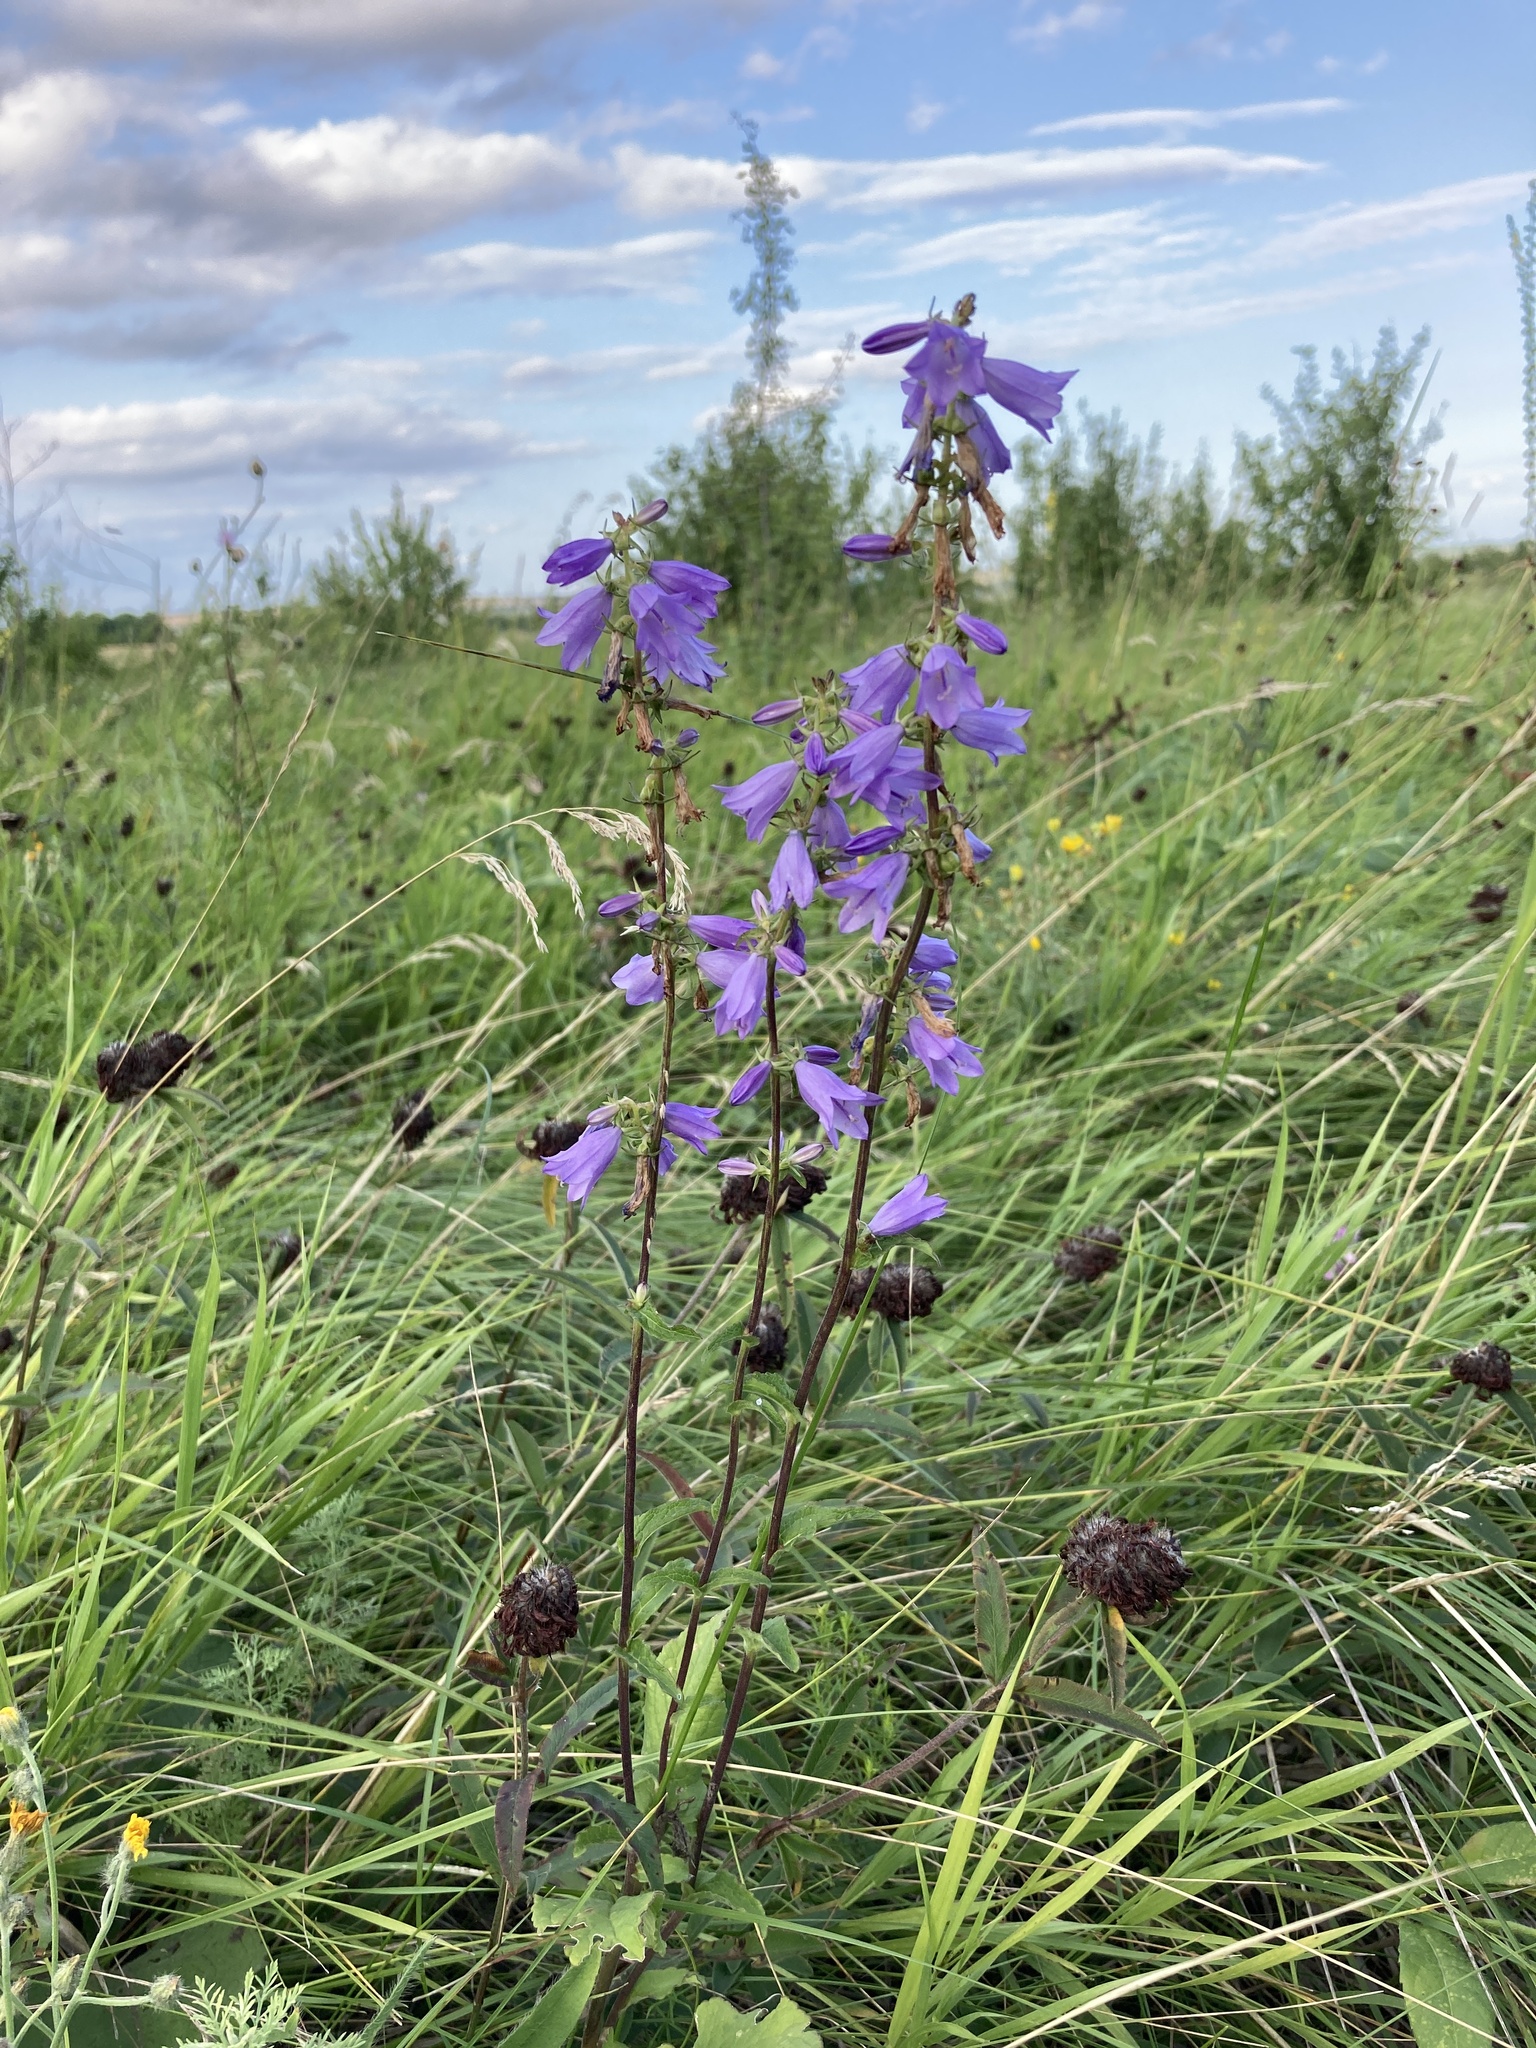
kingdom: Plantae
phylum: Tracheophyta
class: Magnoliopsida
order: Asterales
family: Campanulaceae
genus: Campanula
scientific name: Campanula bononiensis
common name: Pale bellflower
